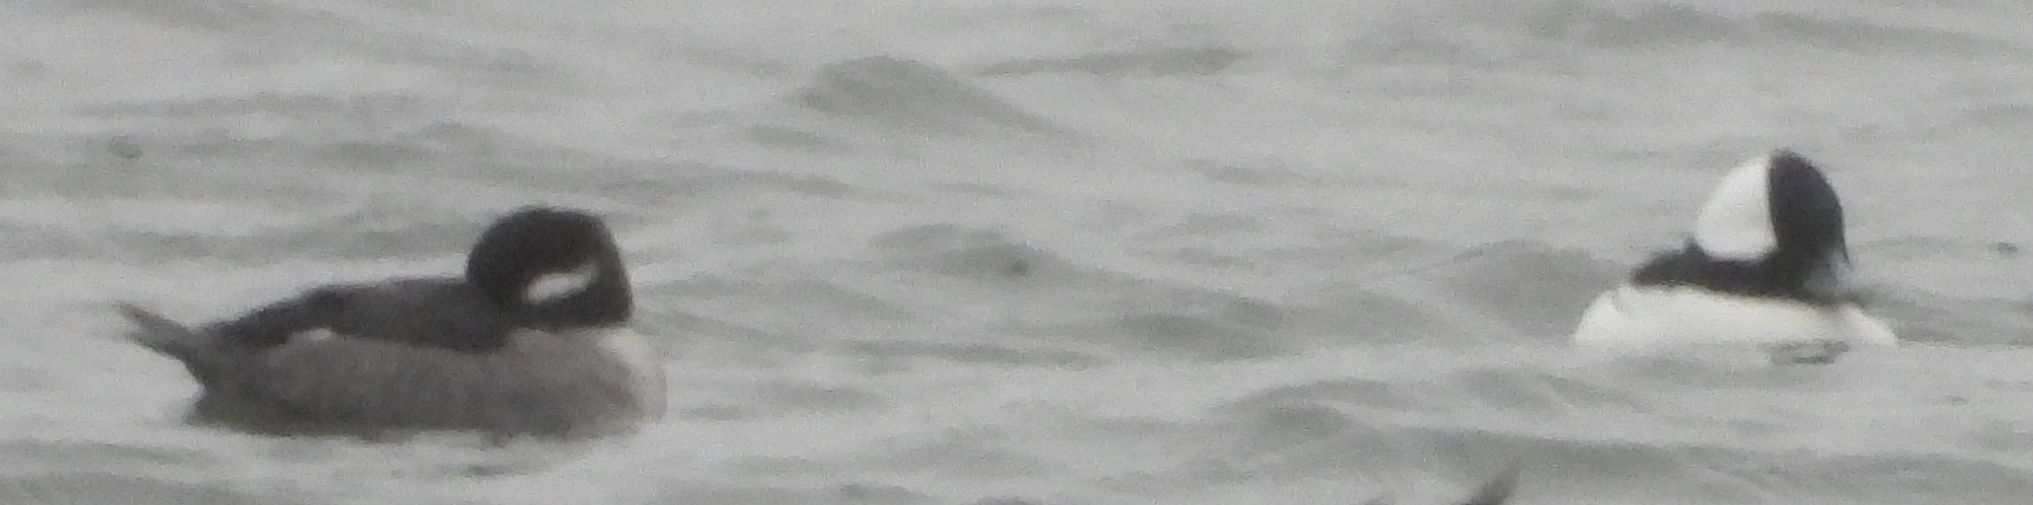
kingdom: Animalia
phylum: Chordata
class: Aves
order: Anseriformes
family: Anatidae
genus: Bucephala
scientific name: Bucephala albeola
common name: Bufflehead
